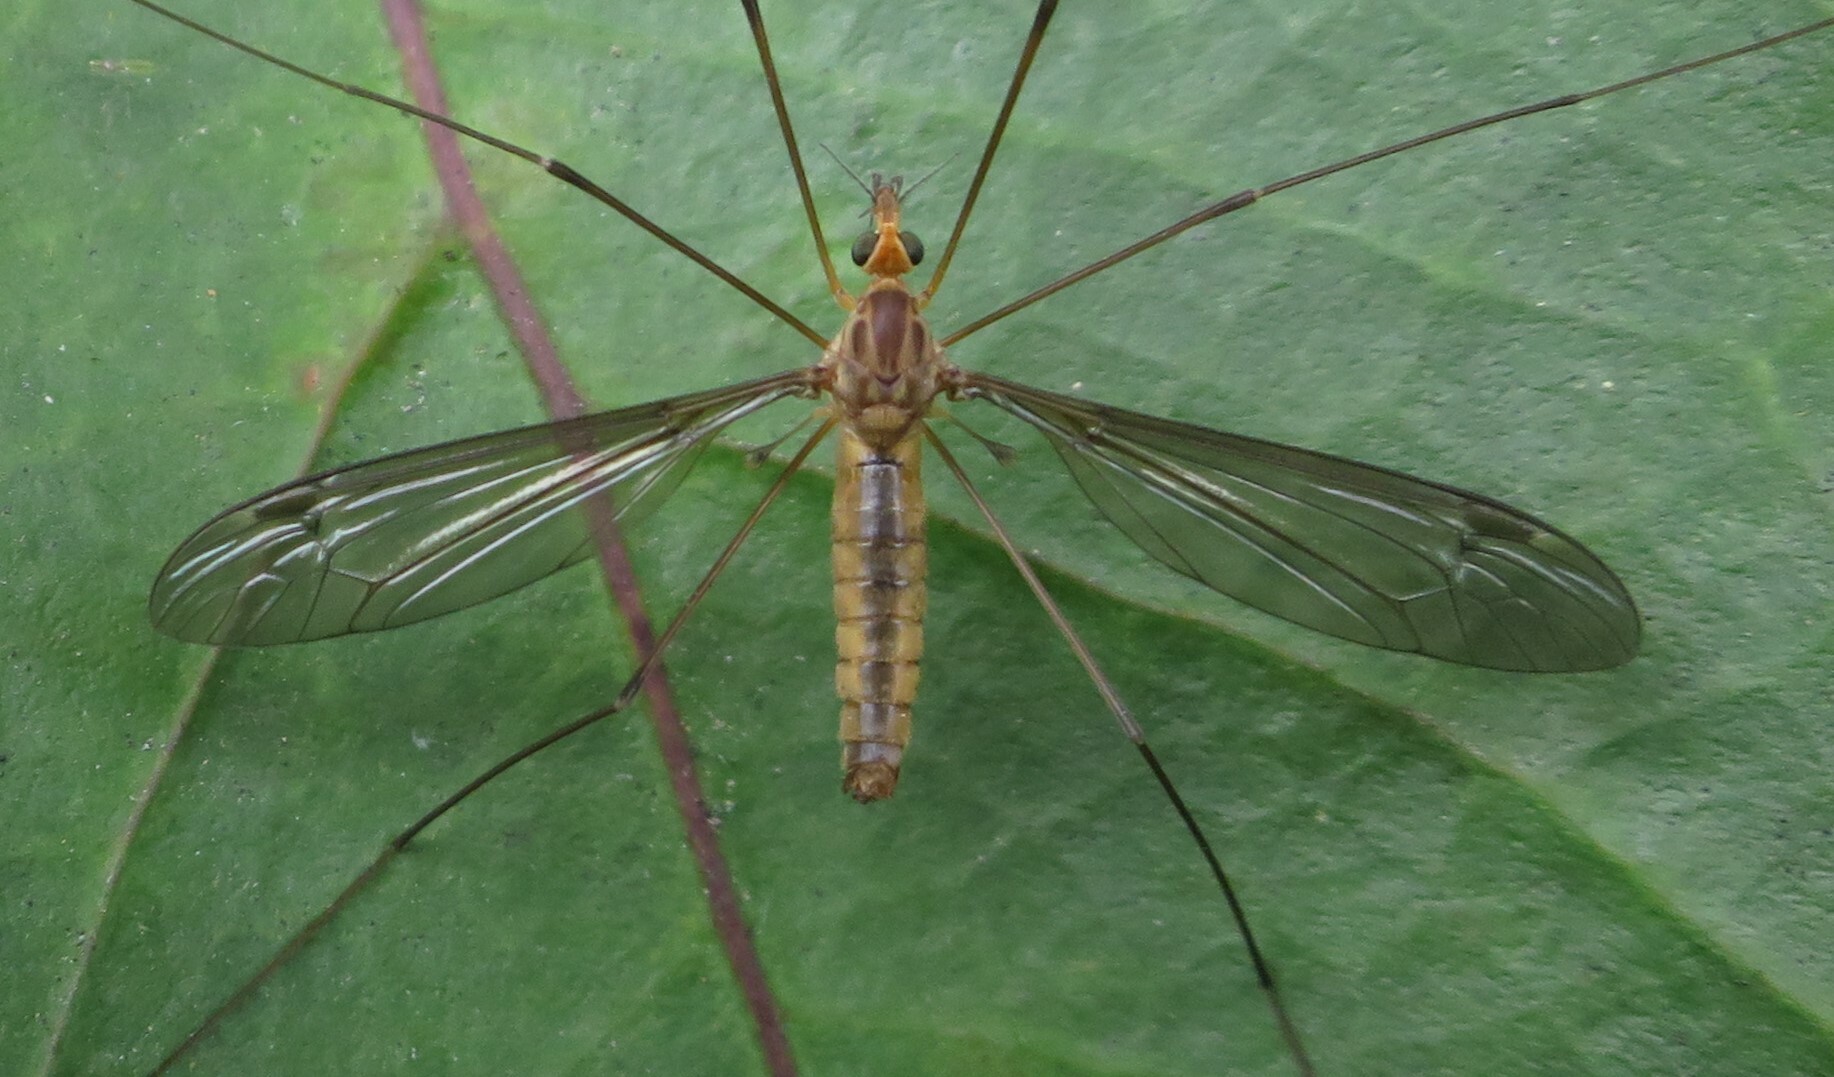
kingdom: Animalia
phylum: Arthropoda
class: Insecta
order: Diptera
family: Tipulidae
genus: Leptotarsus
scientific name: Leptotarsus dichroithorax
